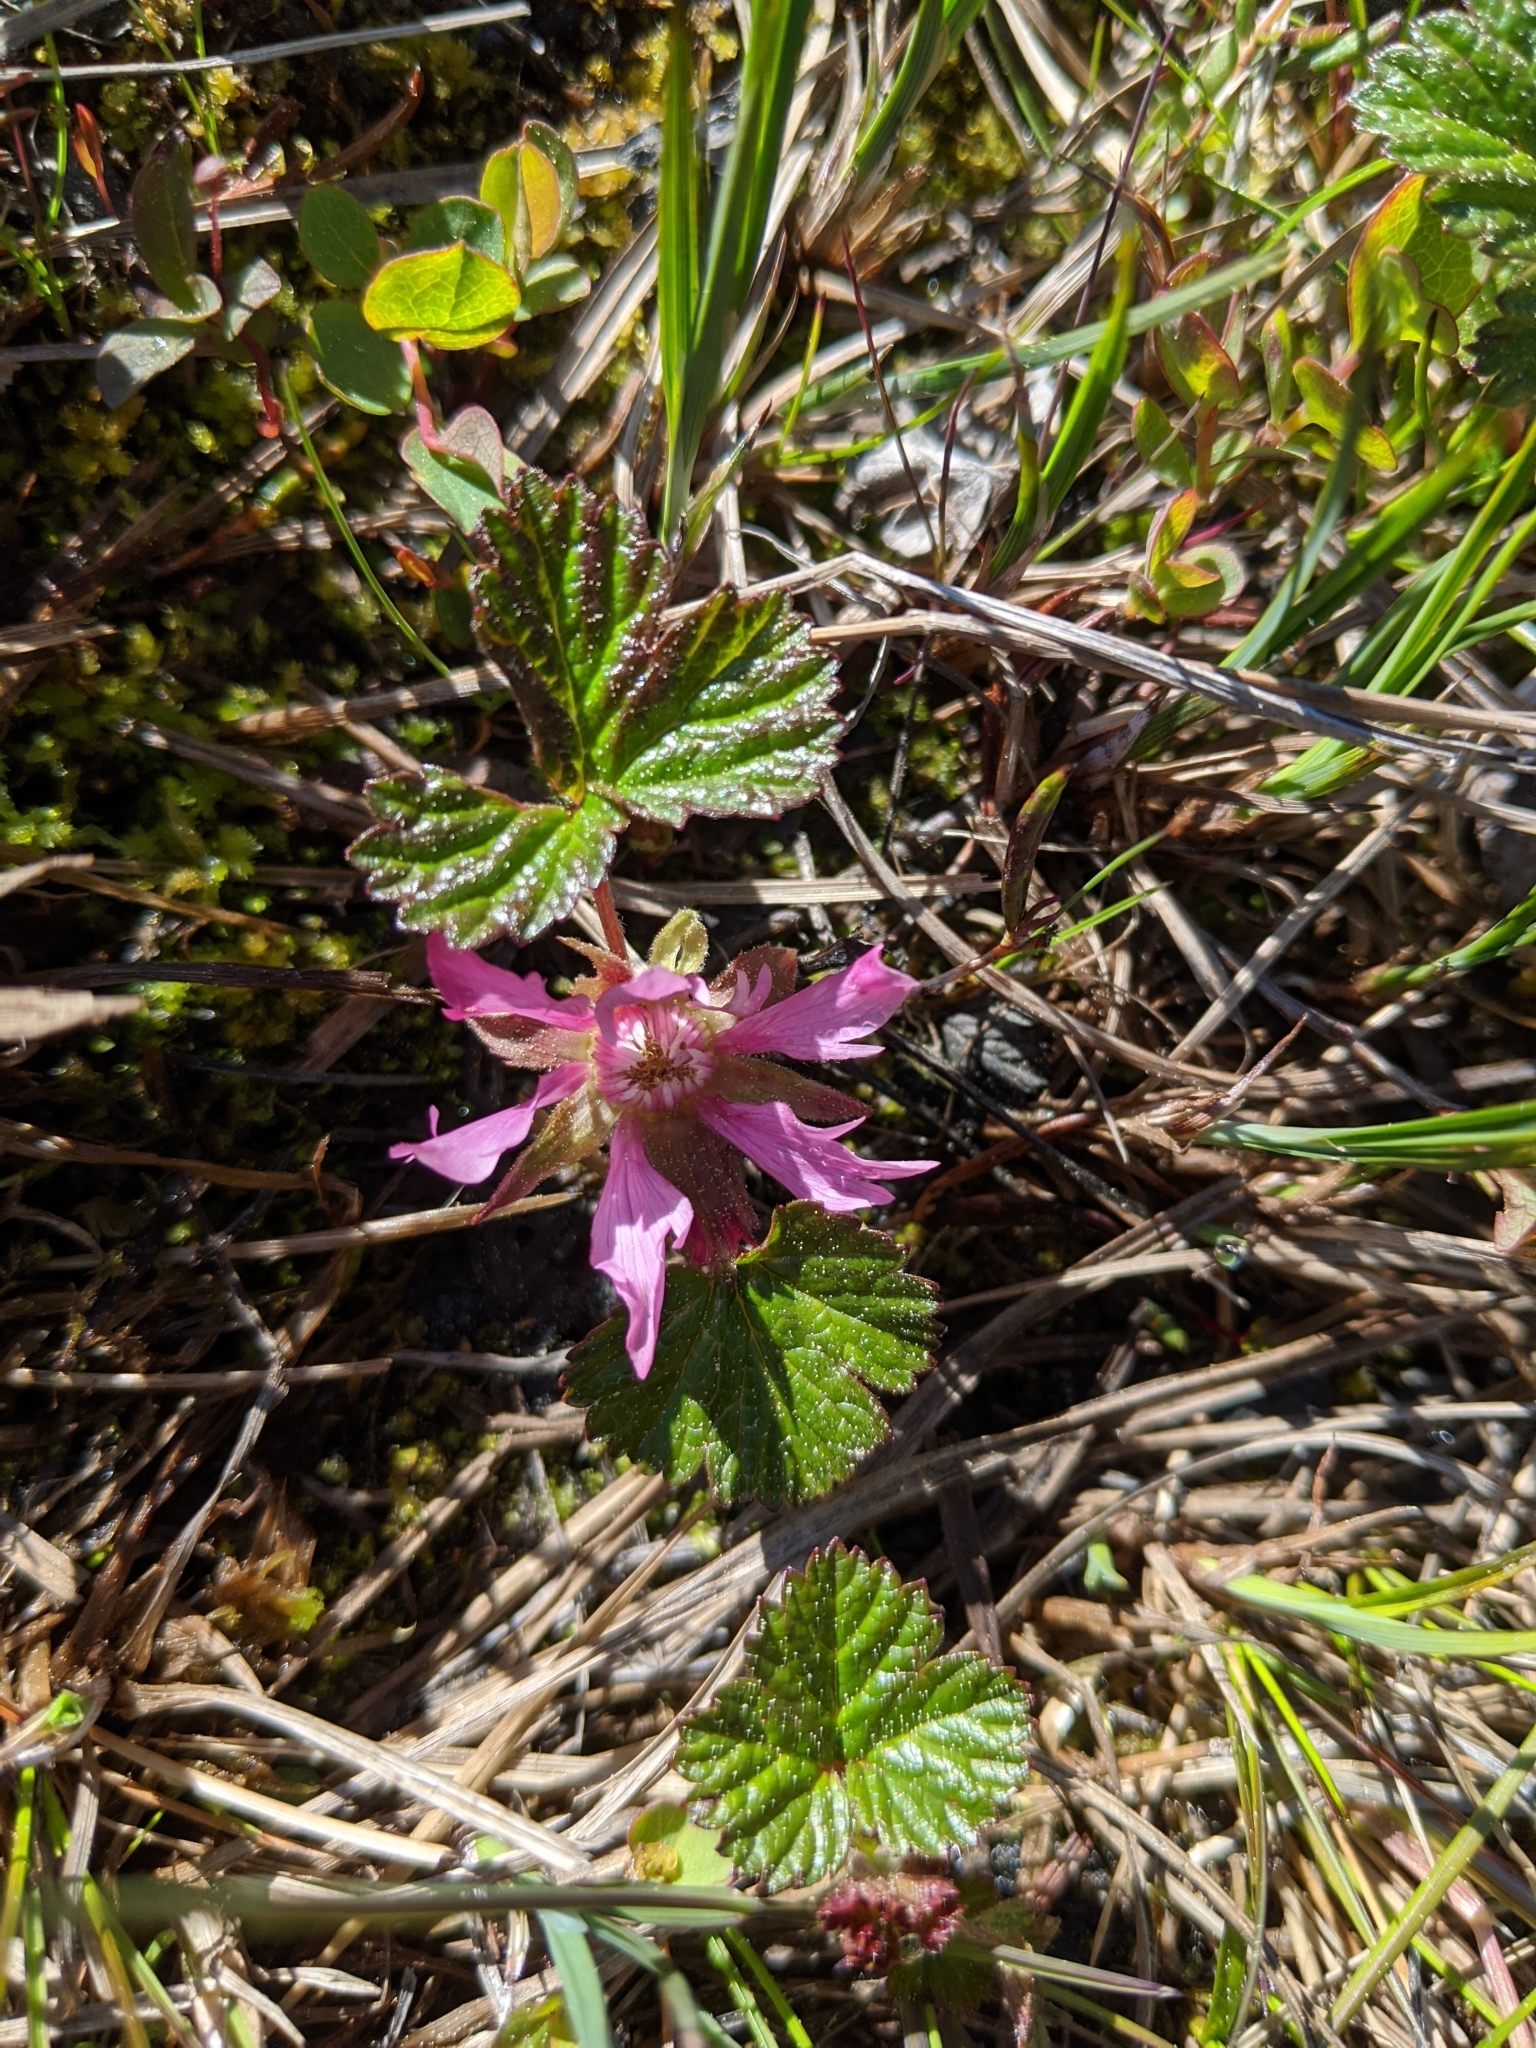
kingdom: Plantae
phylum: Tracheophyta
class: Magnoliopsida
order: Rosales
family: Rosaceae
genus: Rubus
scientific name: Rubus arcticus
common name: Arctic bramble
